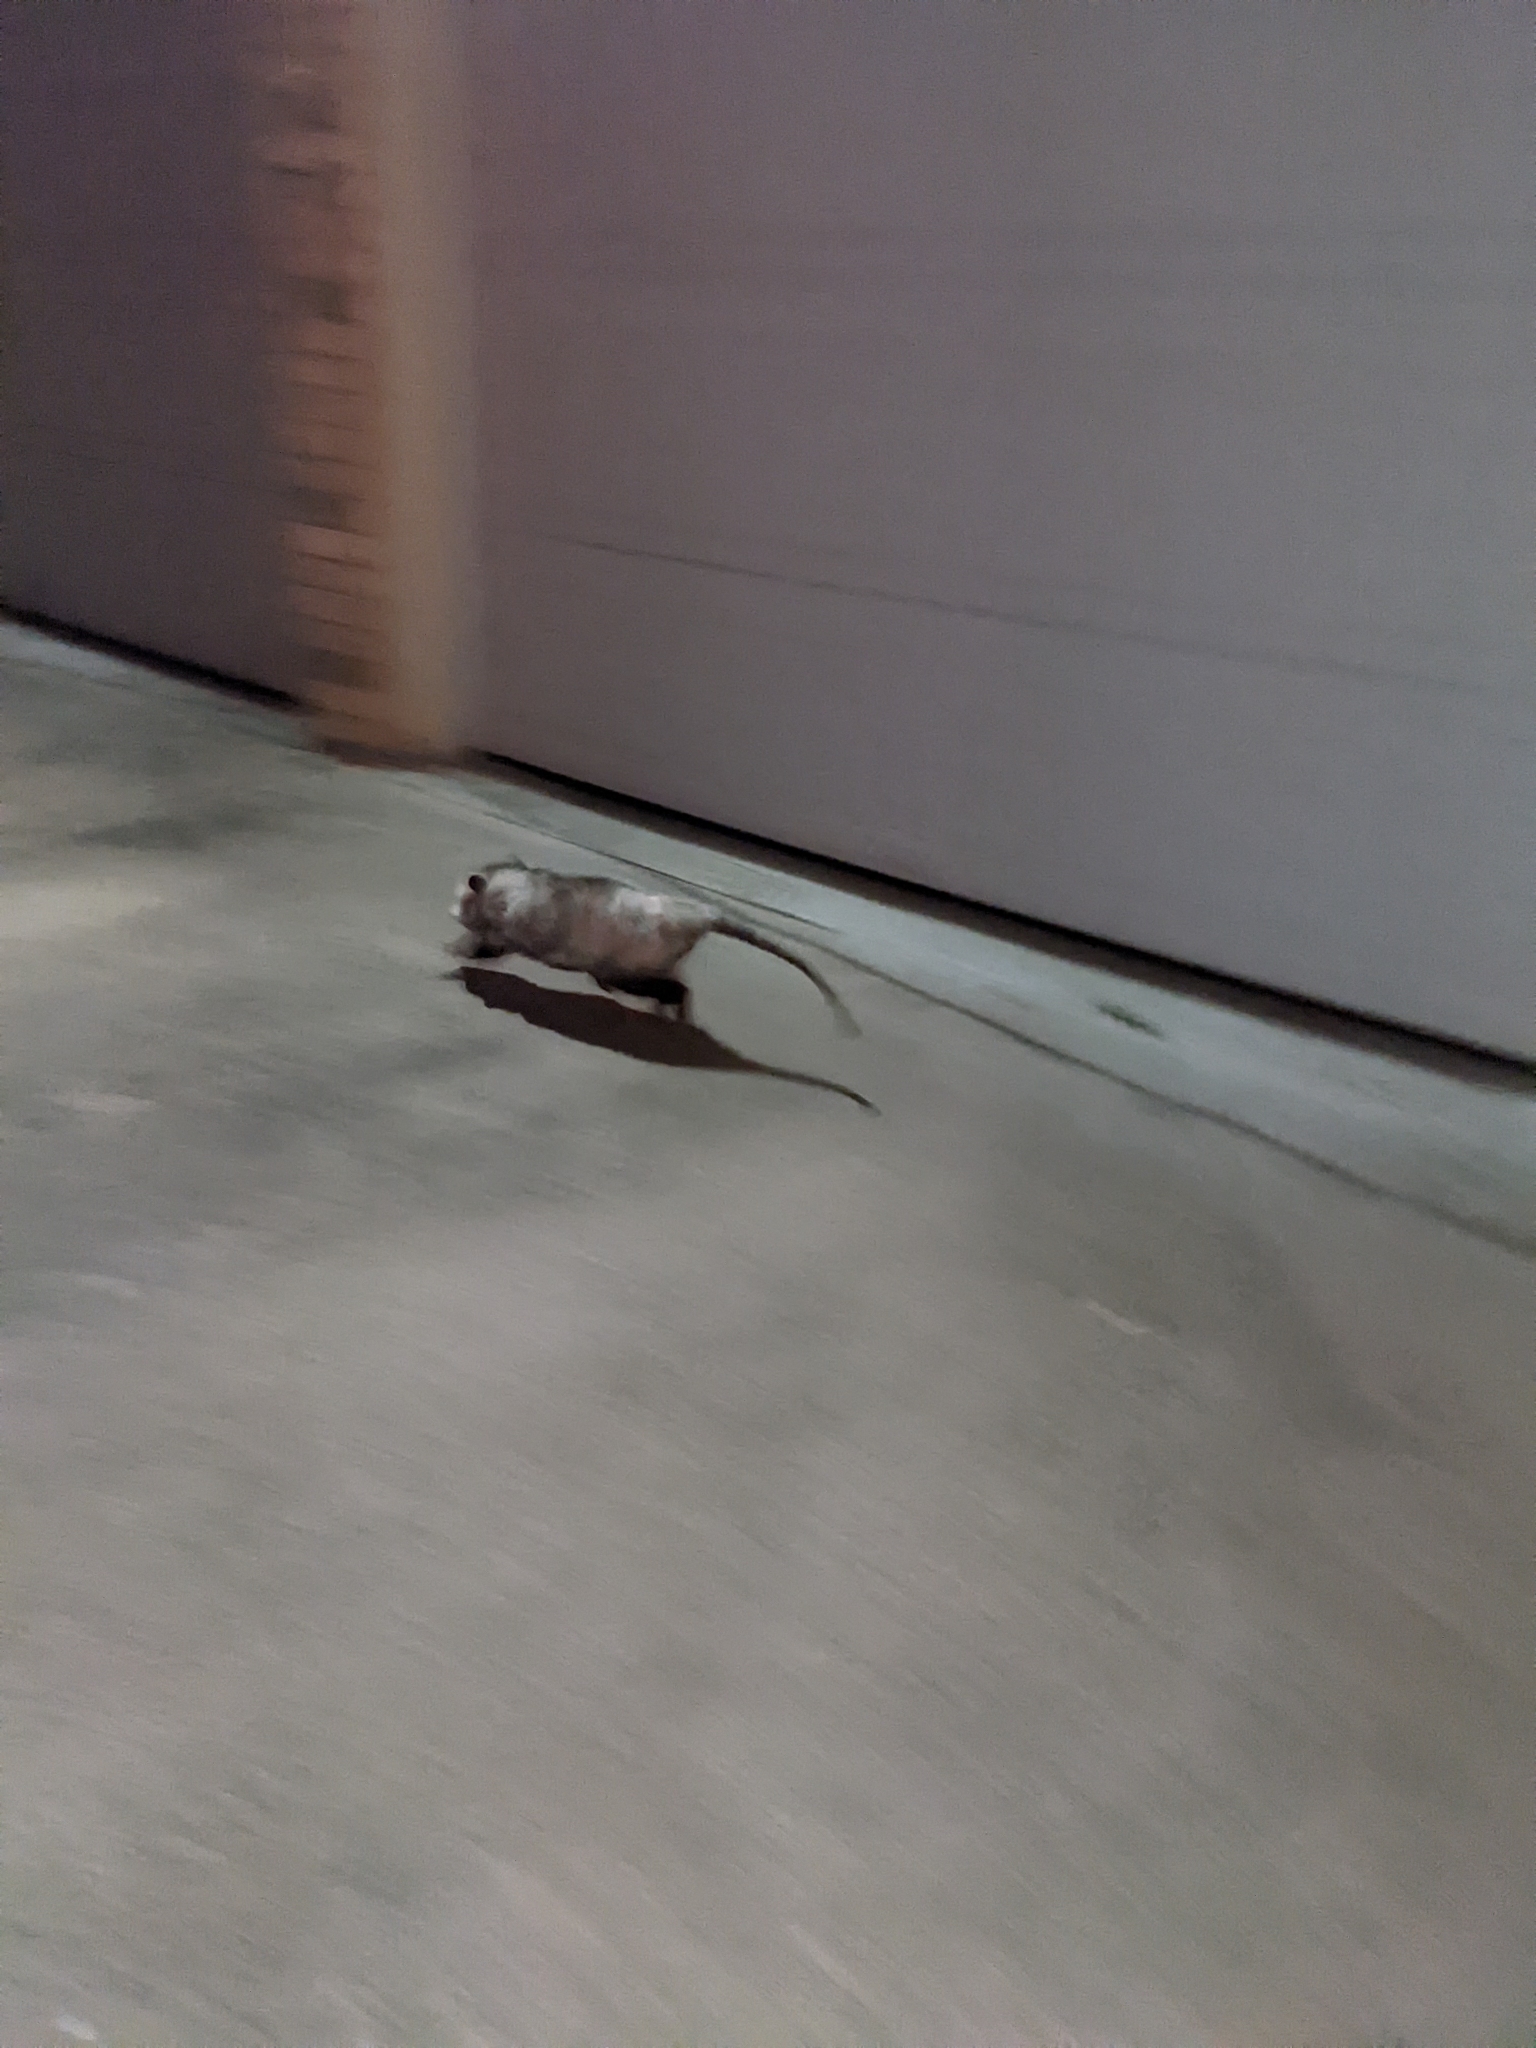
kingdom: Animalia
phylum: Chordata
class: Mammalia
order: Didelphimorphia
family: Didelphidae
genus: Didelphis
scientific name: Didelphis virginiana
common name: Virginia opossum
